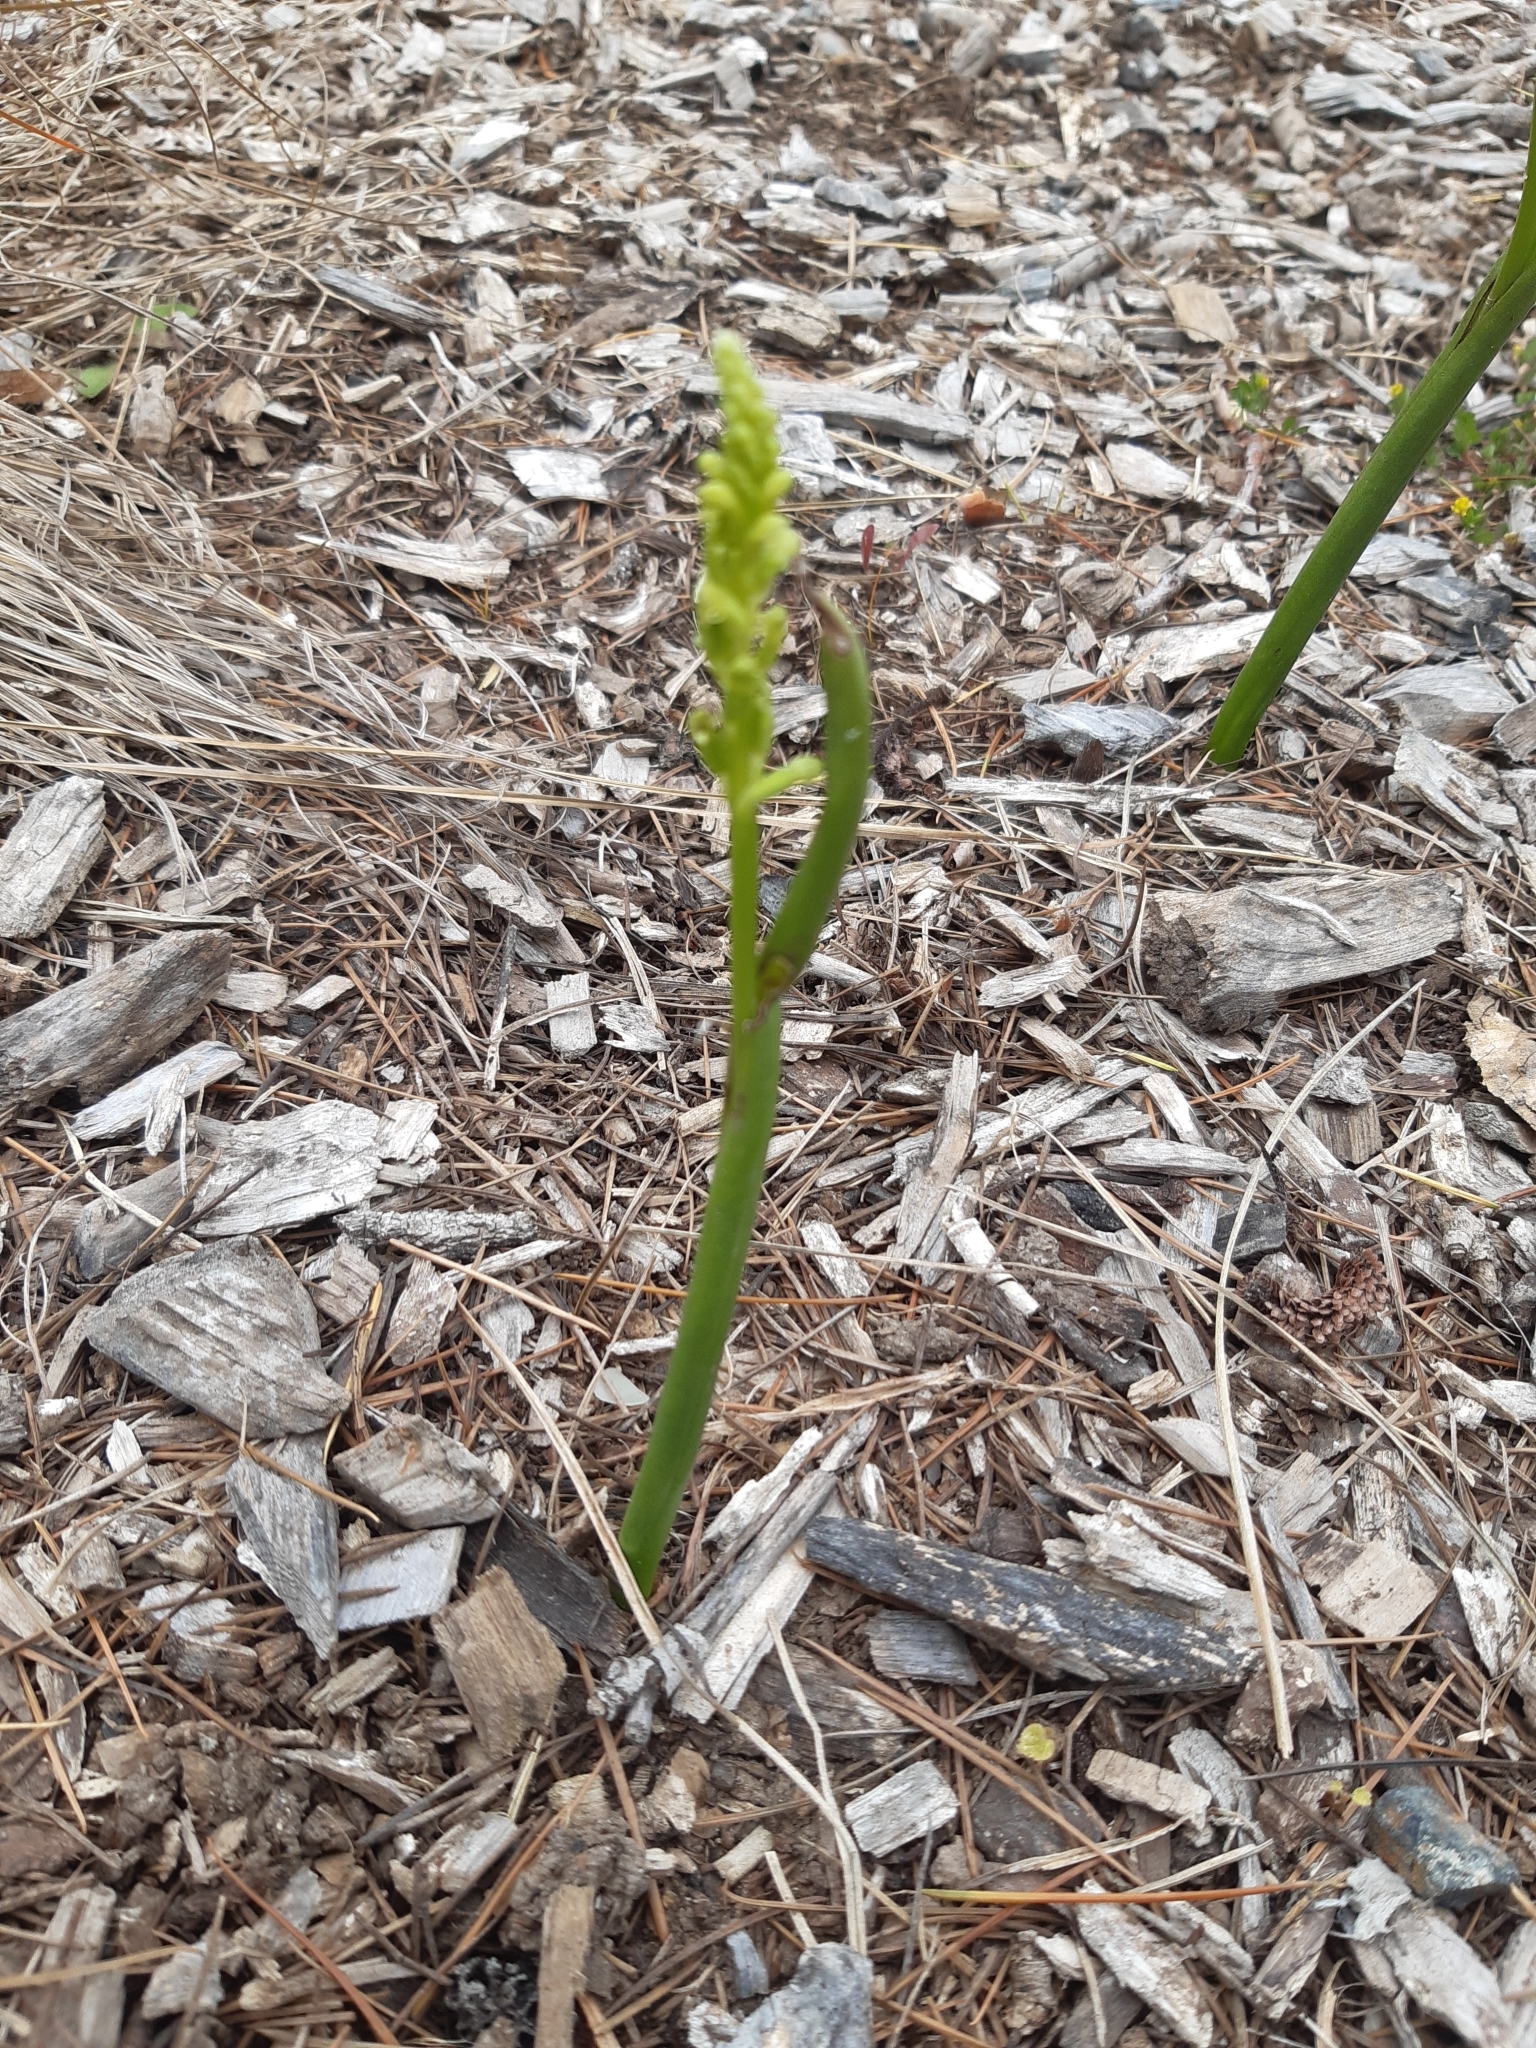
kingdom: Plantae
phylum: Tracheophyta
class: Liliopsida
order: Asparagales
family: Orchidaceae
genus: Microtis
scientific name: Microtis unifolia
